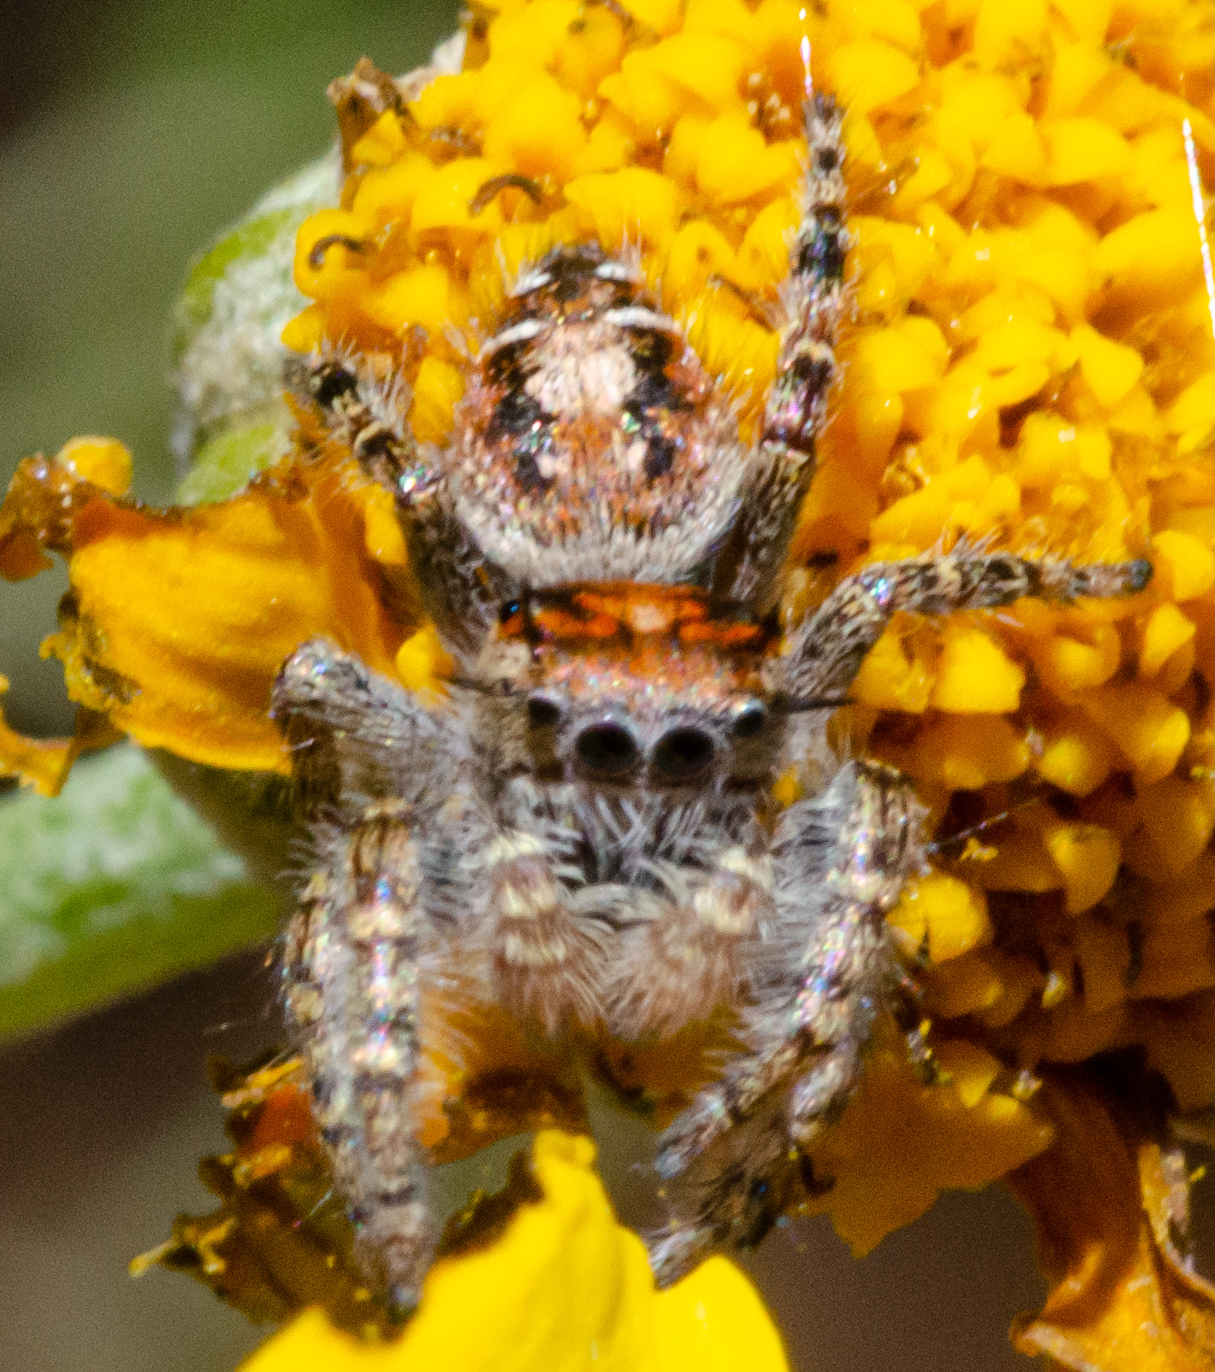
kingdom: Animalia
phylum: Arthropoda
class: Arachnida
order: Araneae
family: Salticidae
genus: Phidippus
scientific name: Phidippus comatus
